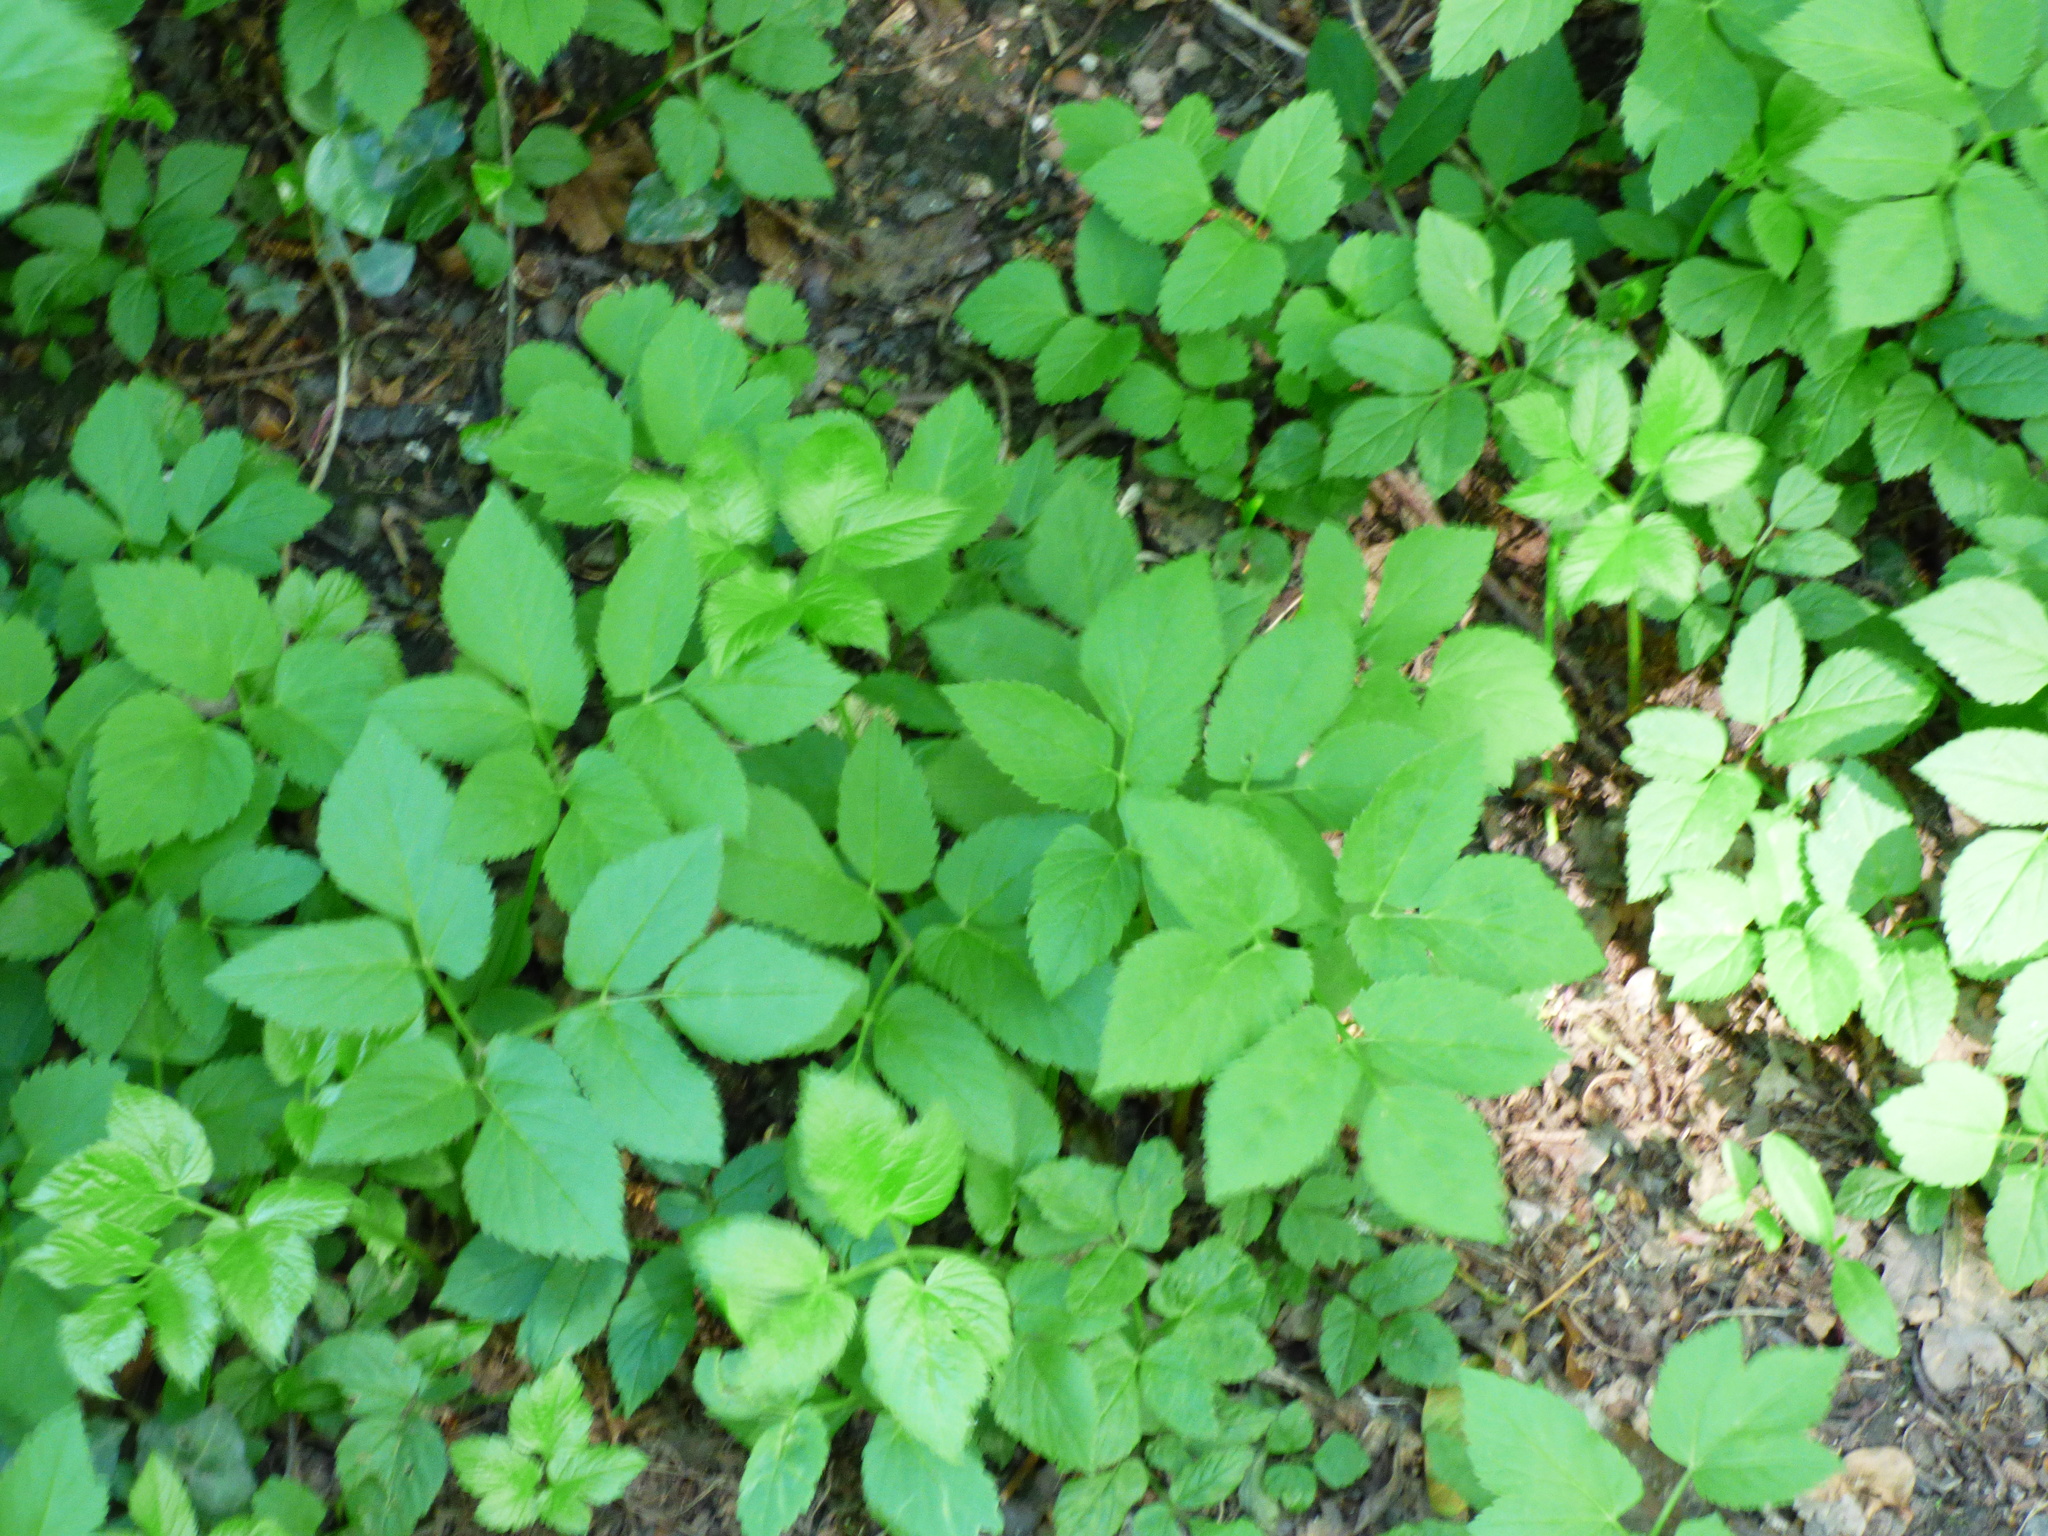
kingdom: Plantae
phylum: Tracheophyta
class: Magnoliopsida
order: Apiales
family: Apiaceae
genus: Aegopodium
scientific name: Aegopodium podagraria
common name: Ground-elder
